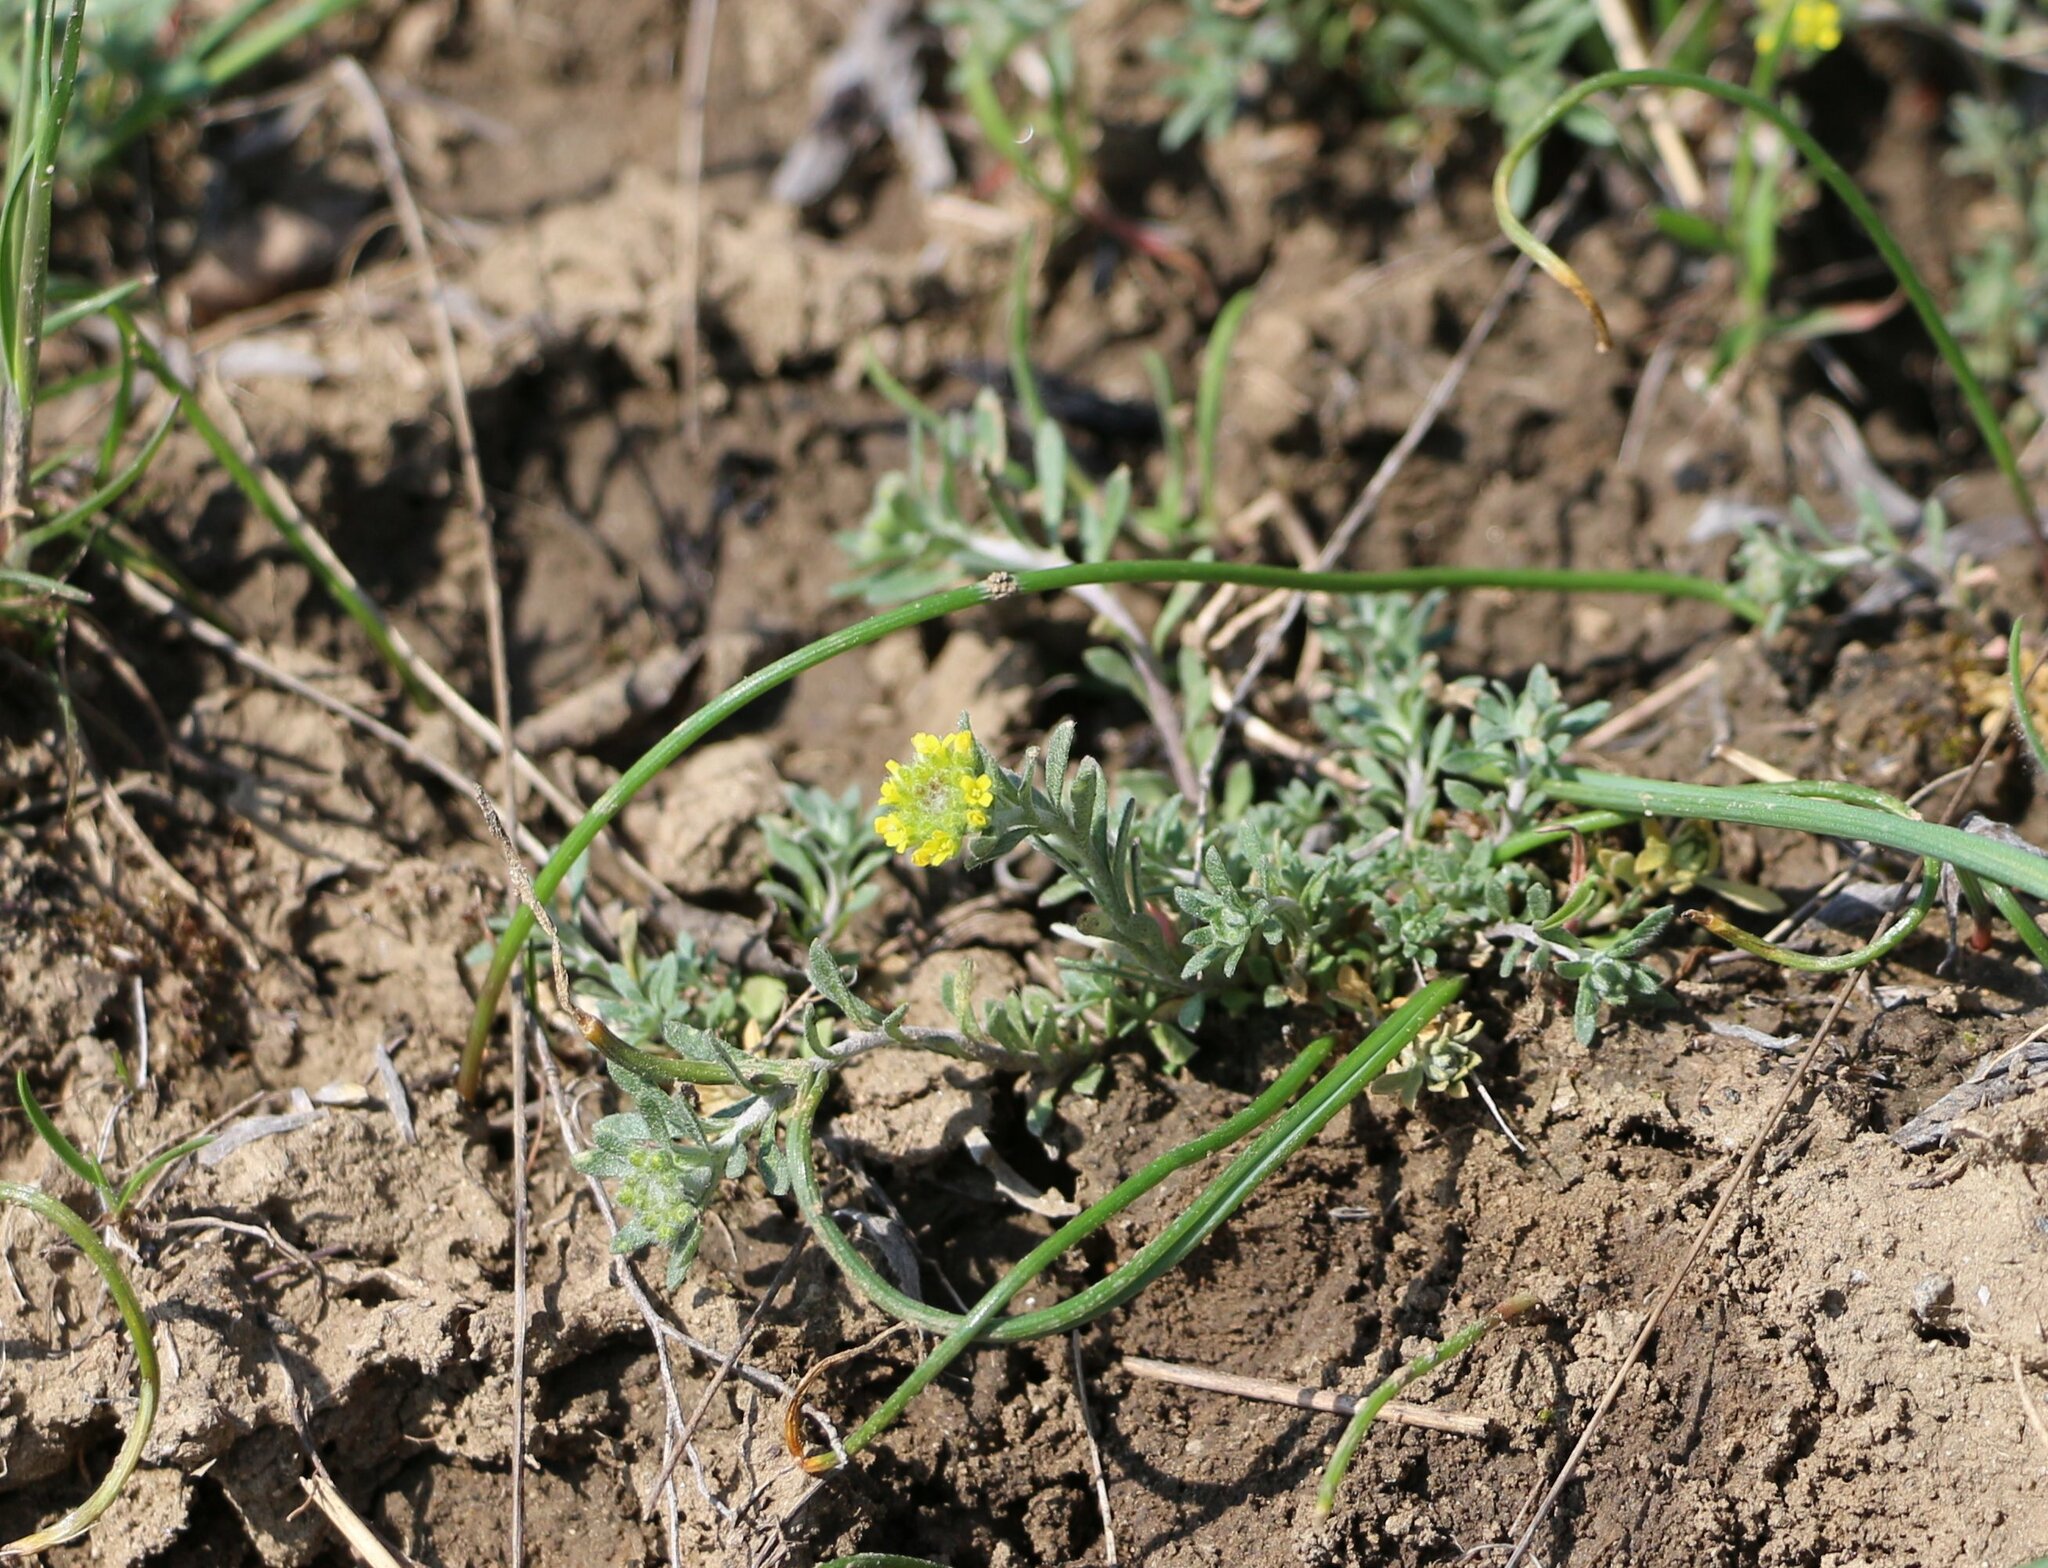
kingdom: Plantae
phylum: Tracheophyta
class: Magnoliopsida
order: Brassicales
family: Brassicaceae
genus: Alyssum
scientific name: Alyssum turkestanicum
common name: Desert alyssum
